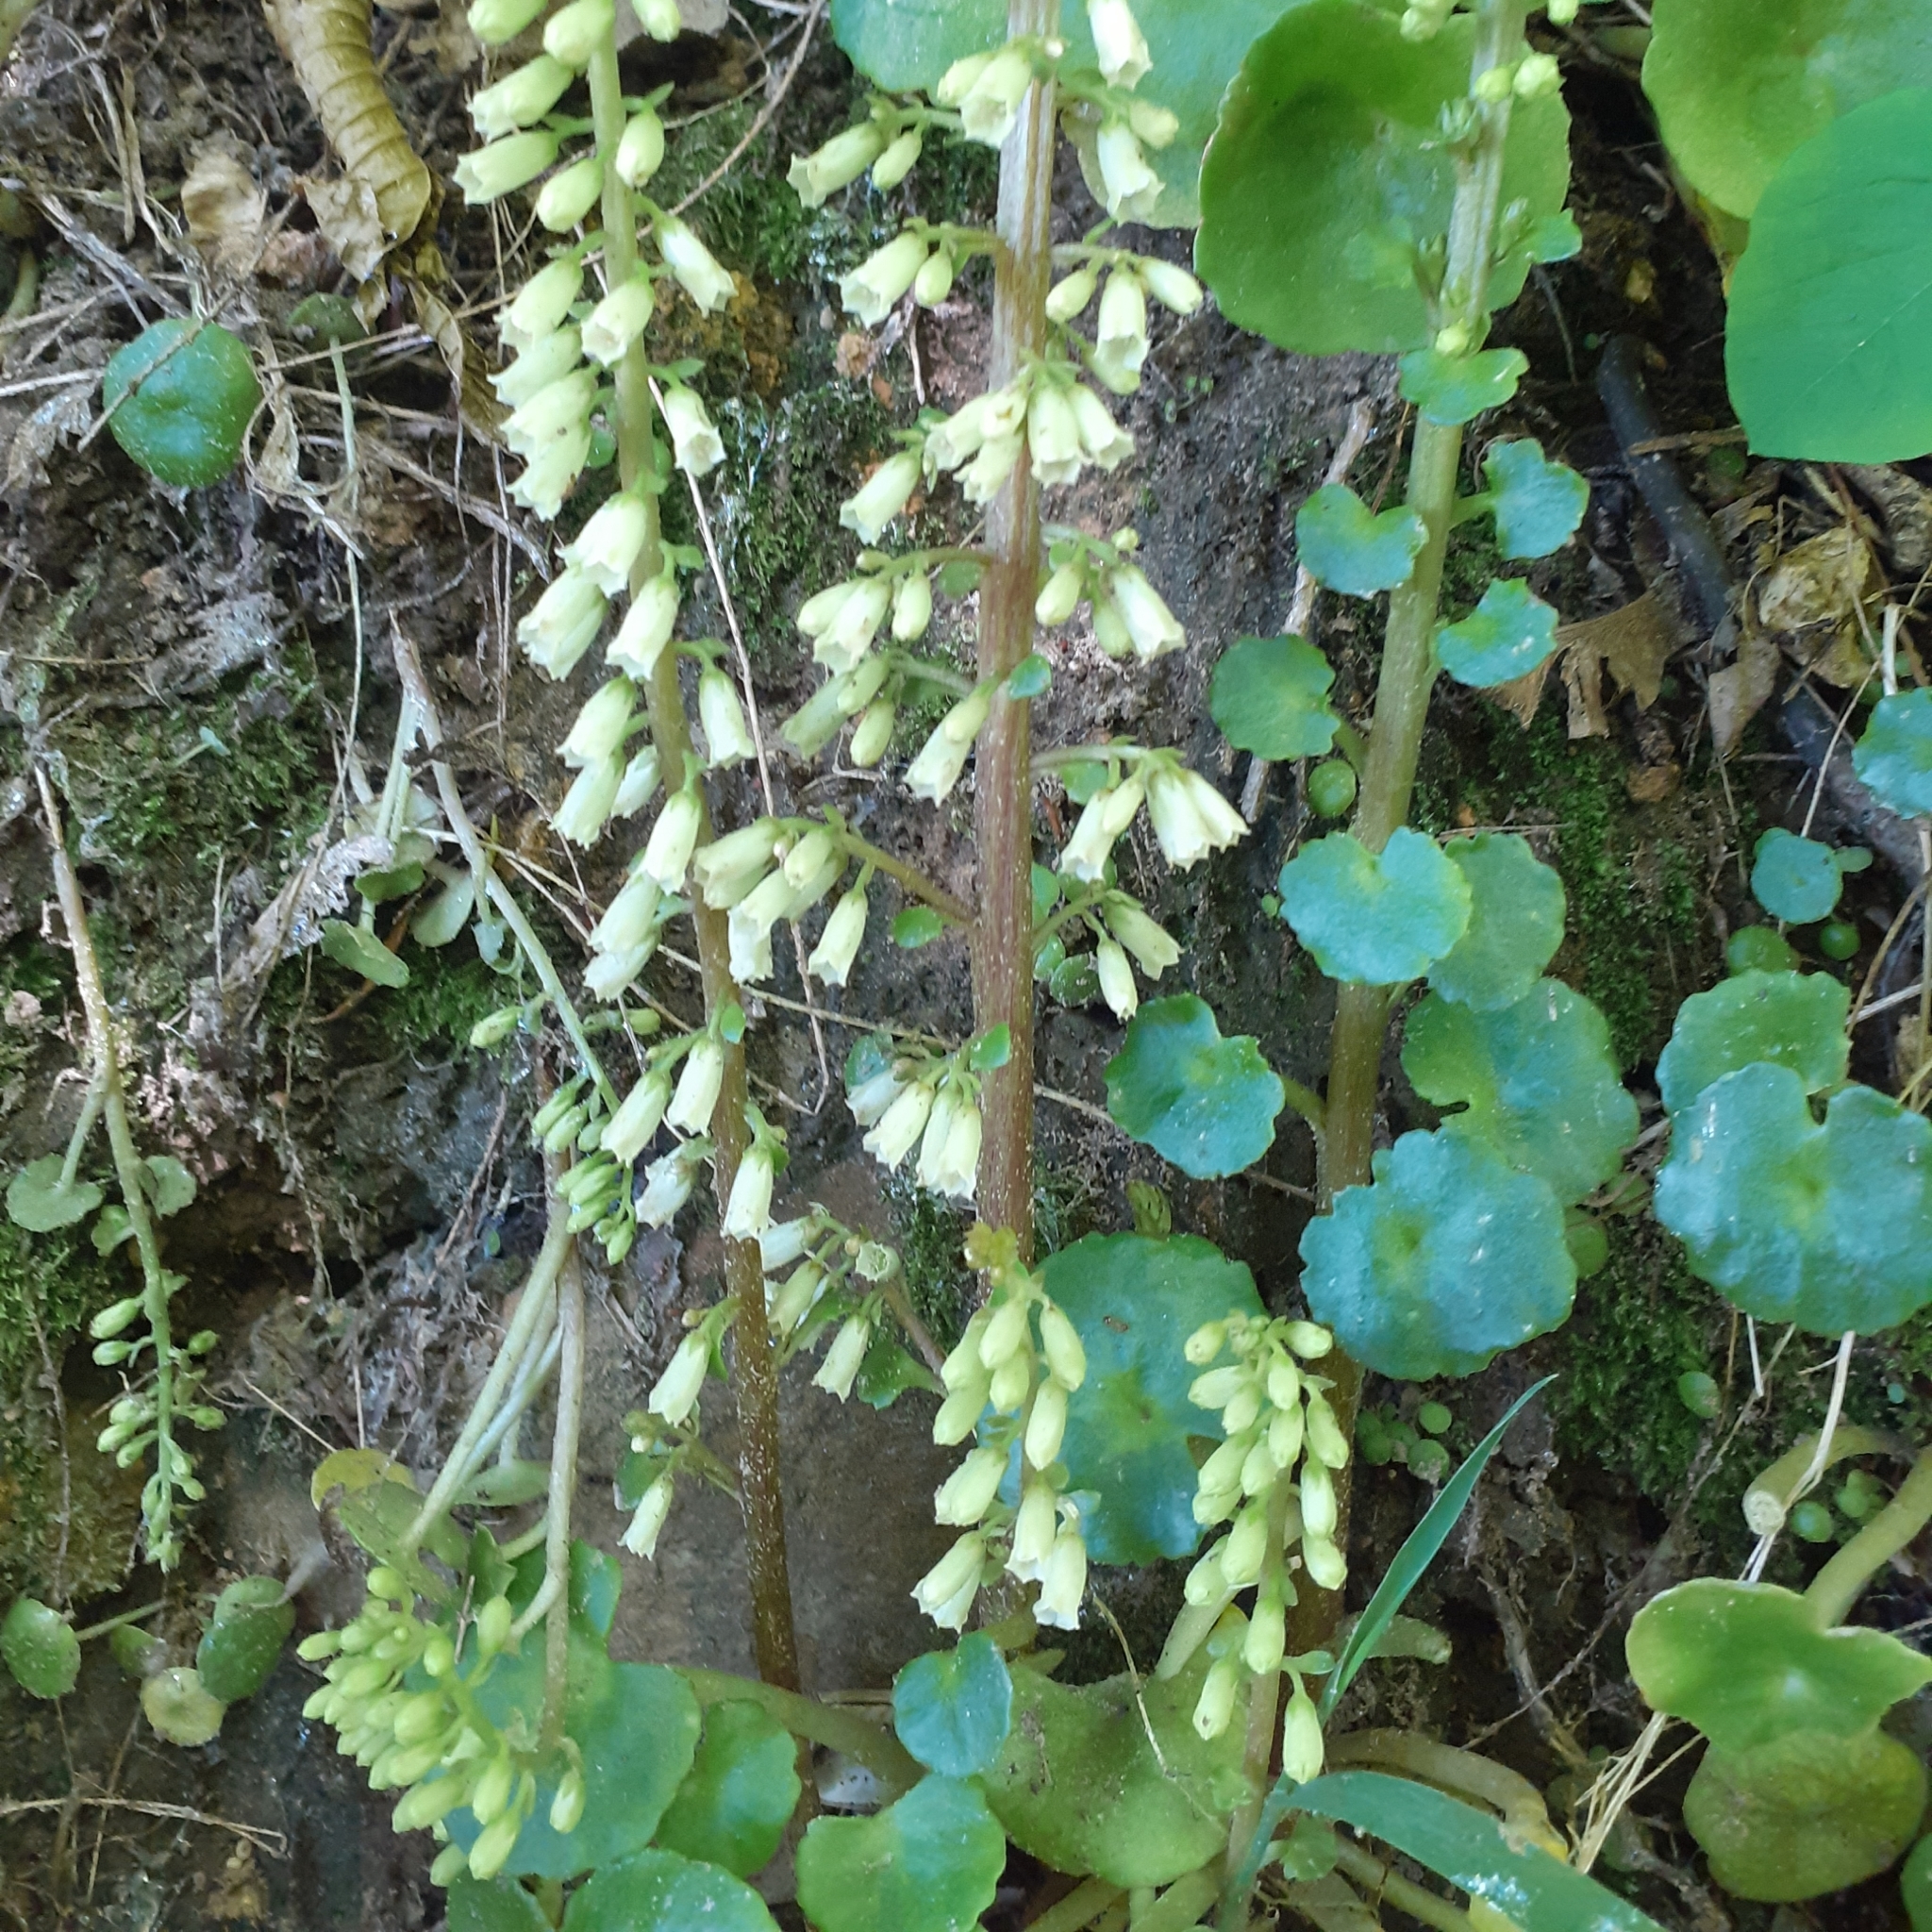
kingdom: Plantae
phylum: Tracheophyta
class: Magnoliopsida
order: Saxifragales
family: Crassulaceae
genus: Umbilicus
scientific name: Umbilicus rupestris
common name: Navelwort
